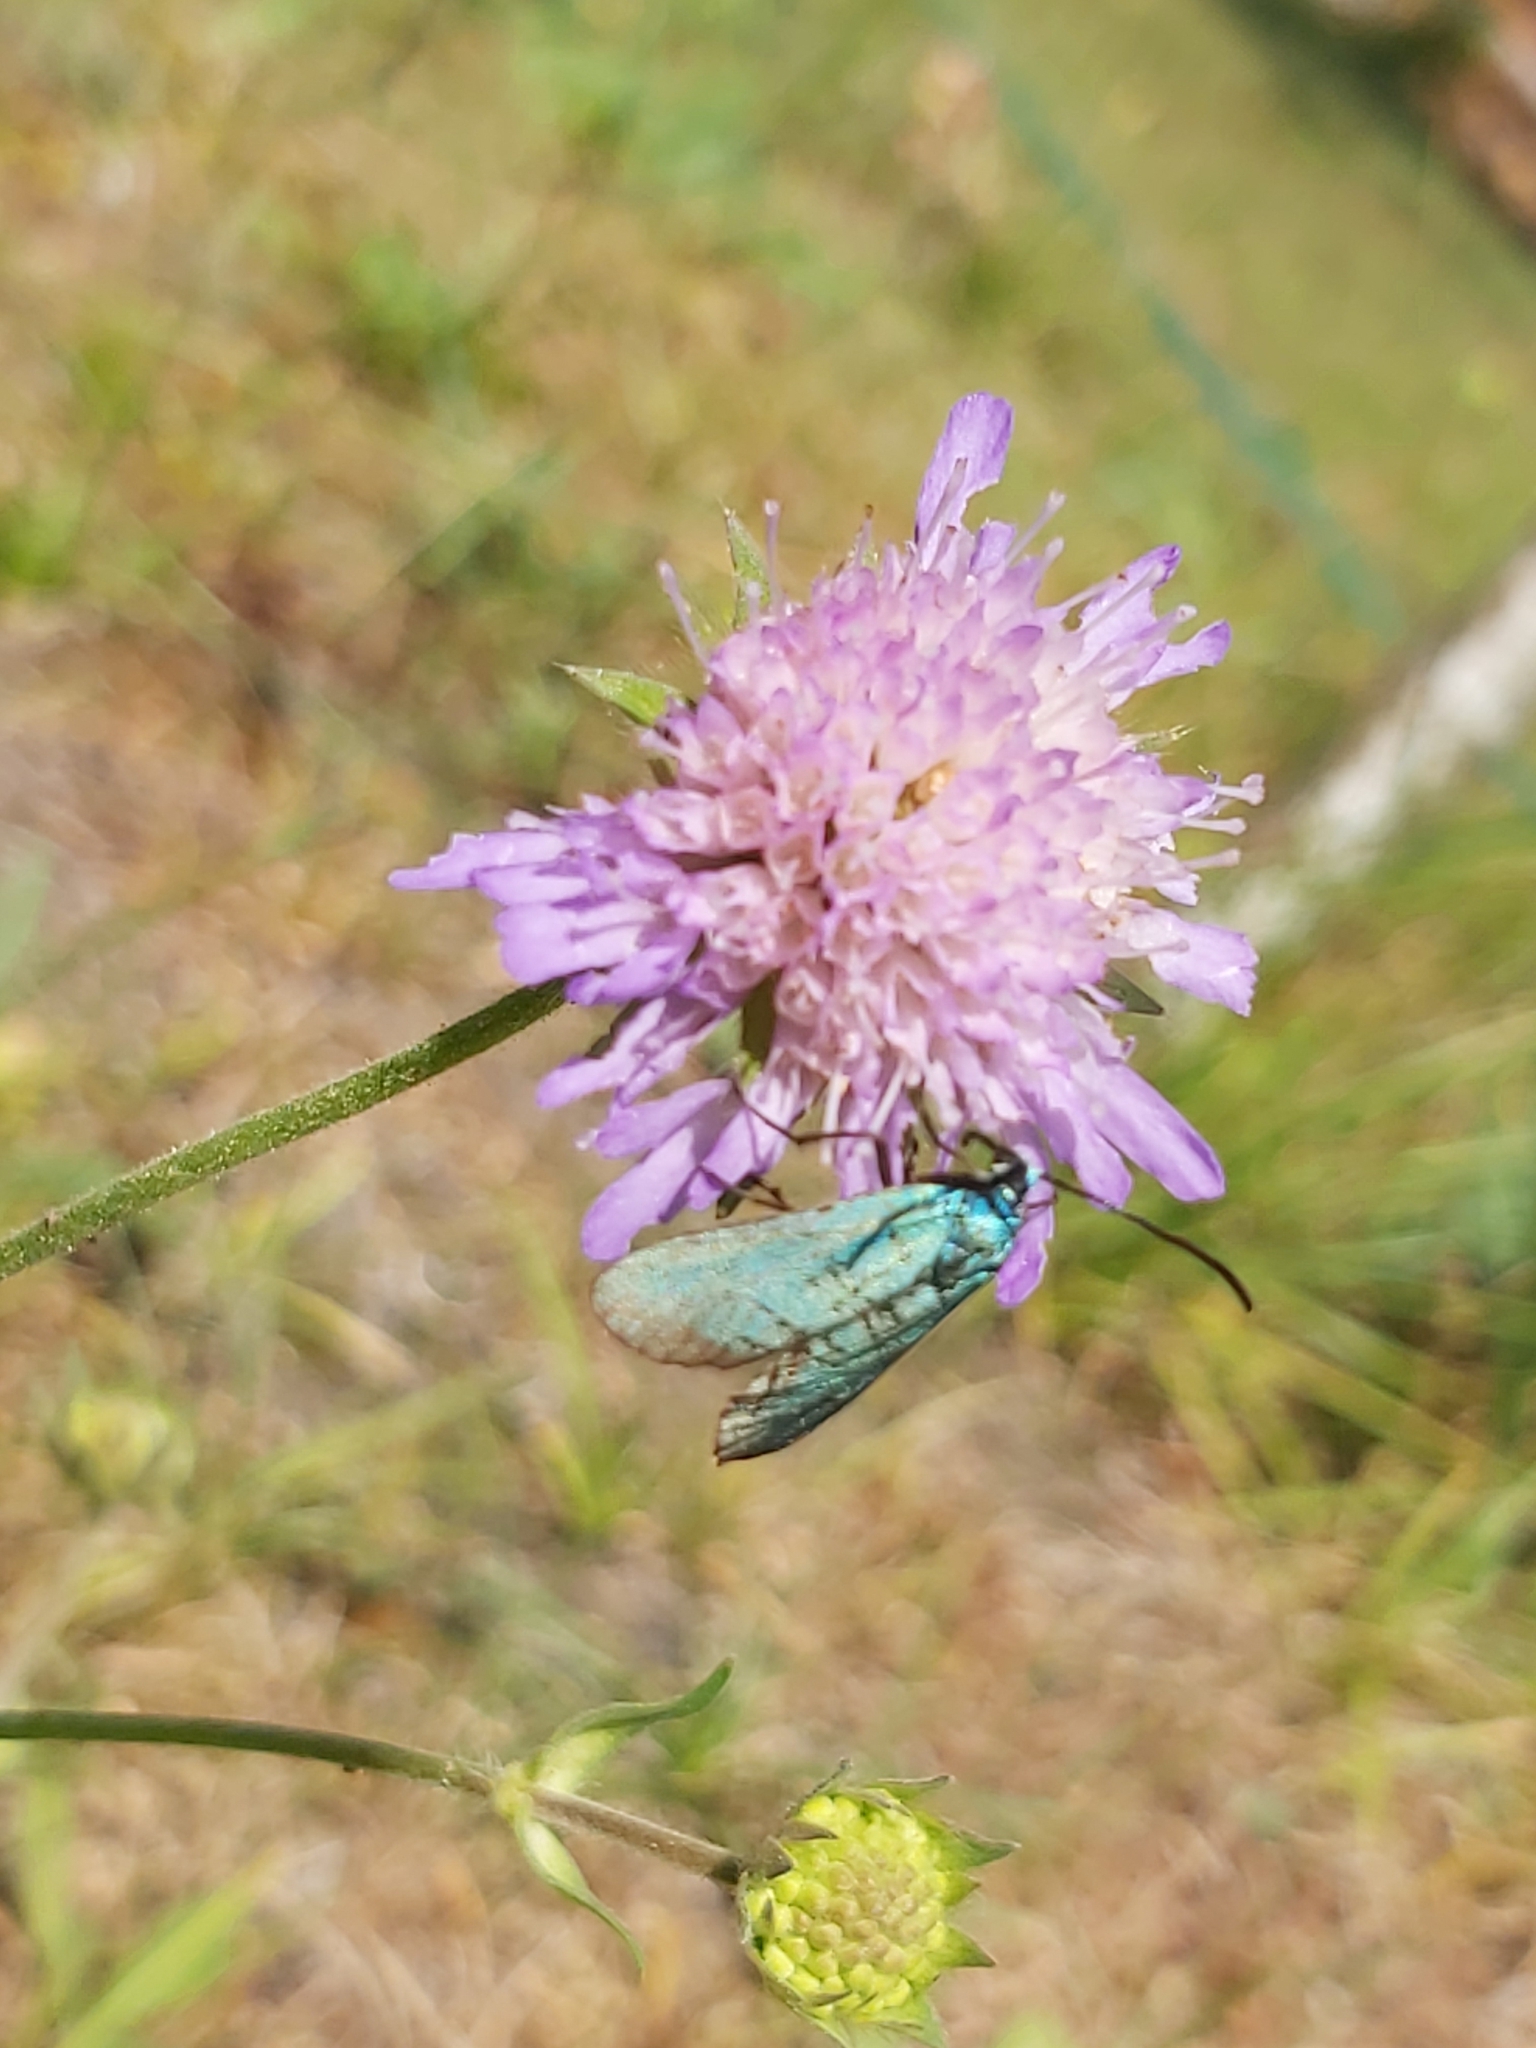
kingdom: Animalia
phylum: Arthropoda
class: Insecta
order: Lepidoptera
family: Zygaenidae
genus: Adscita
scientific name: Adscita statices
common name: Forester
